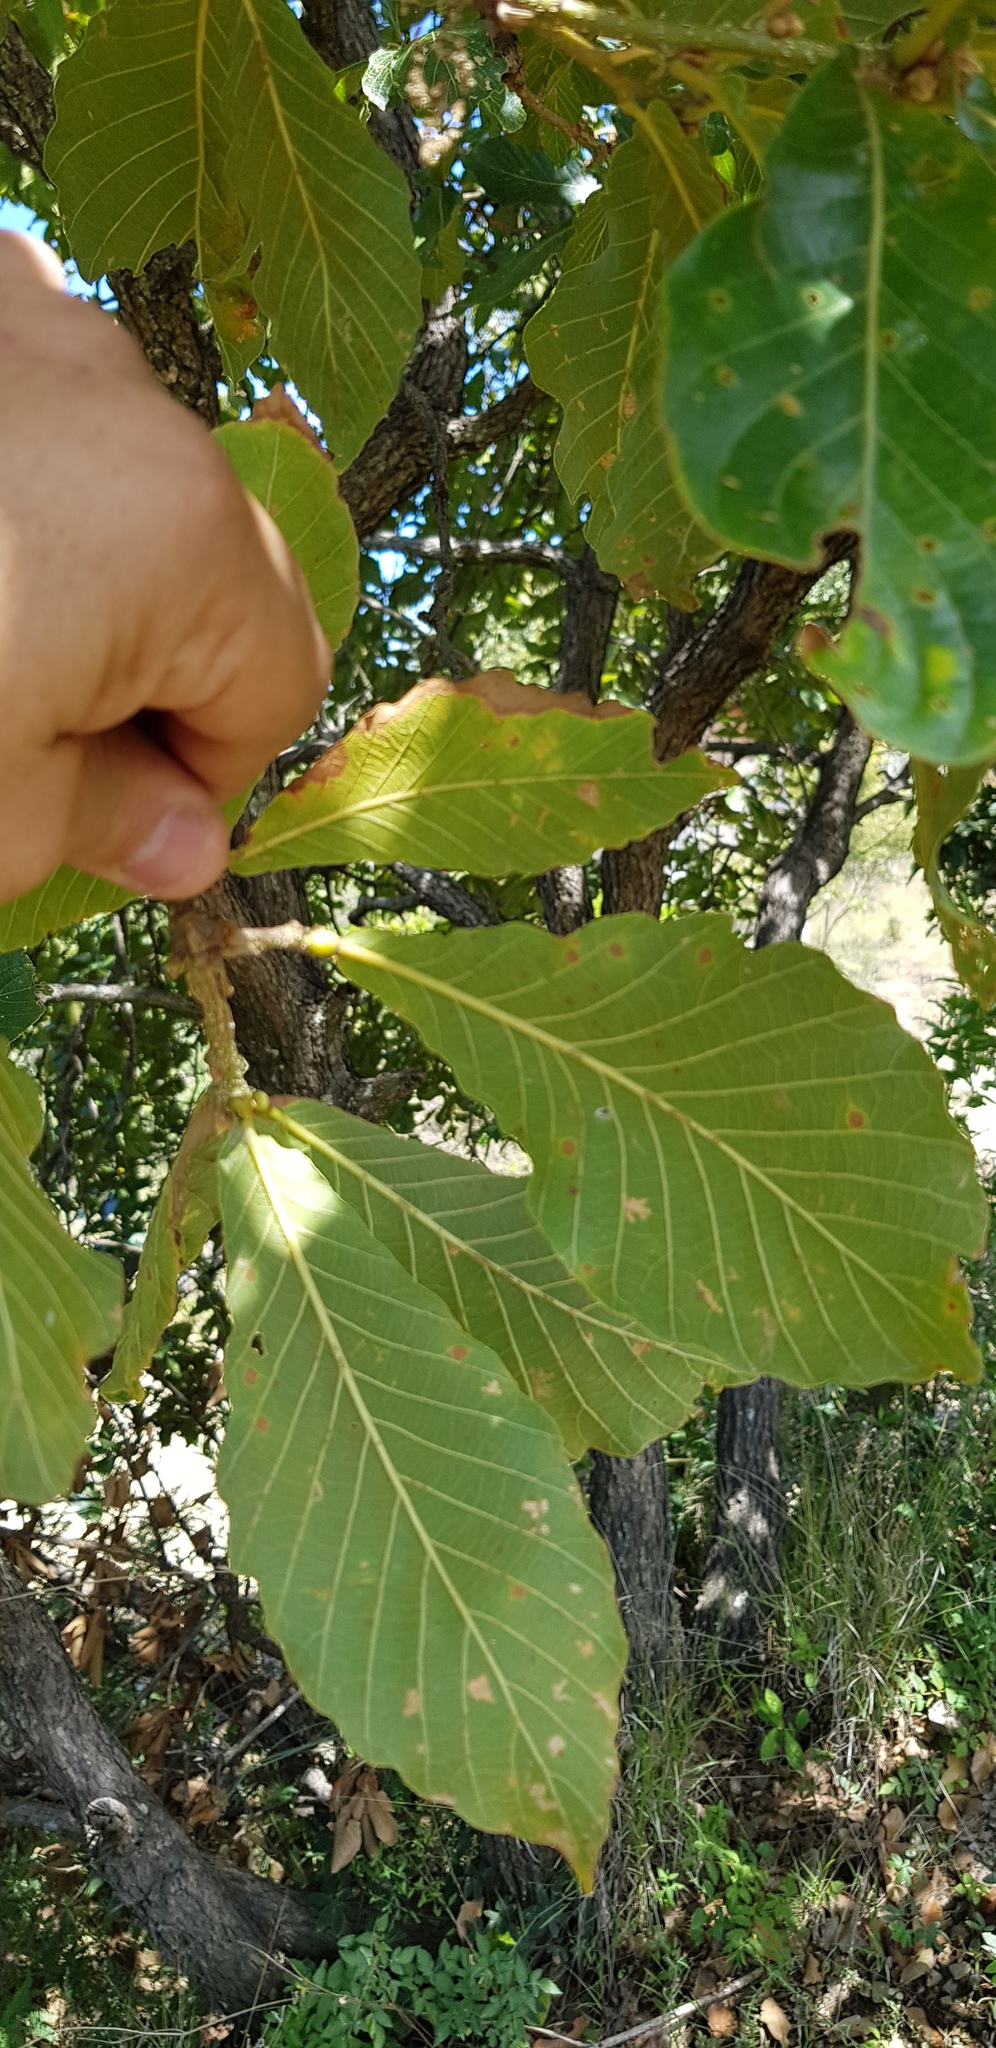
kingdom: Plantae
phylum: Tracheophyta
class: Magnoliopsida
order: Fagales
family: Fagaceae
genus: Quercus
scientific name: Quercus magnoliifolia
